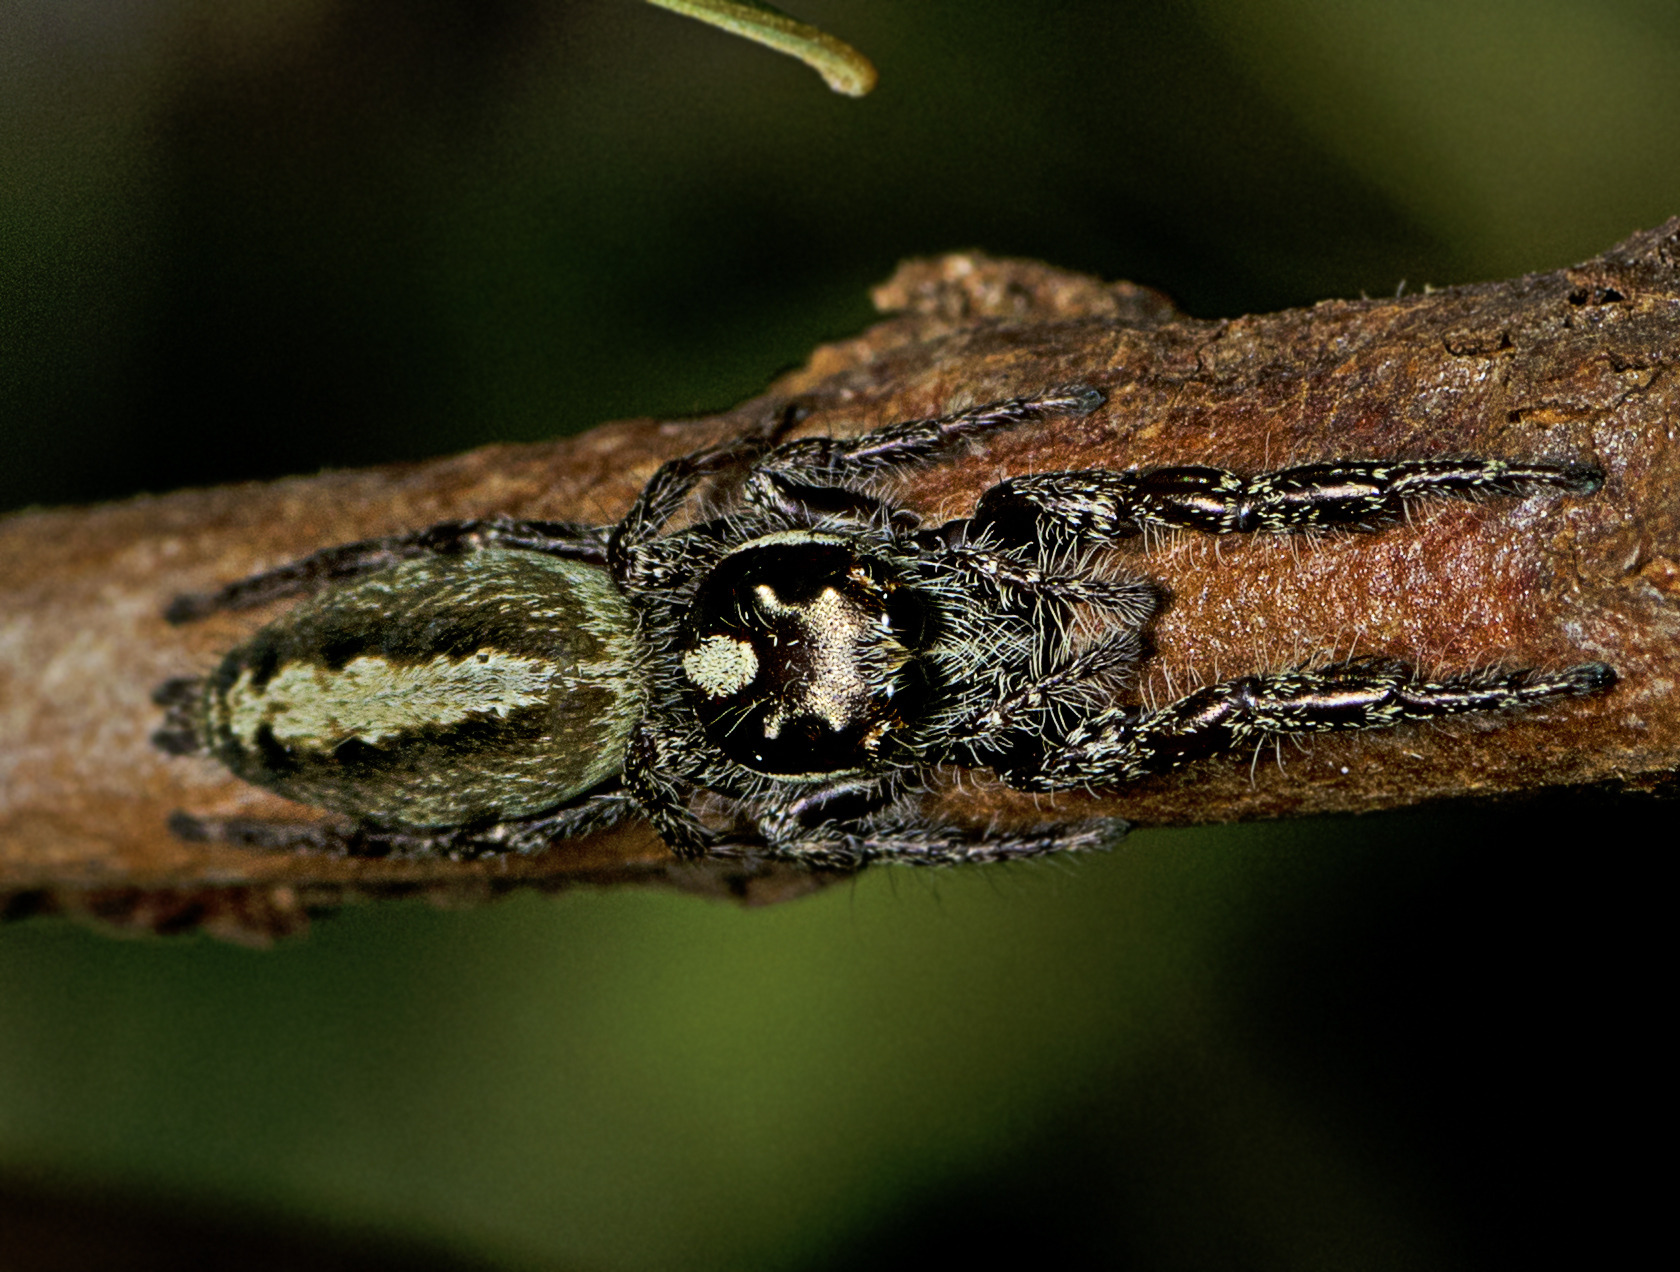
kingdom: Animalia
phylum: Arthropoda
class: Arachnida
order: Araneae
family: Salticidae
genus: Sandalodes
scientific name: Sandalodes bipenicillatus
